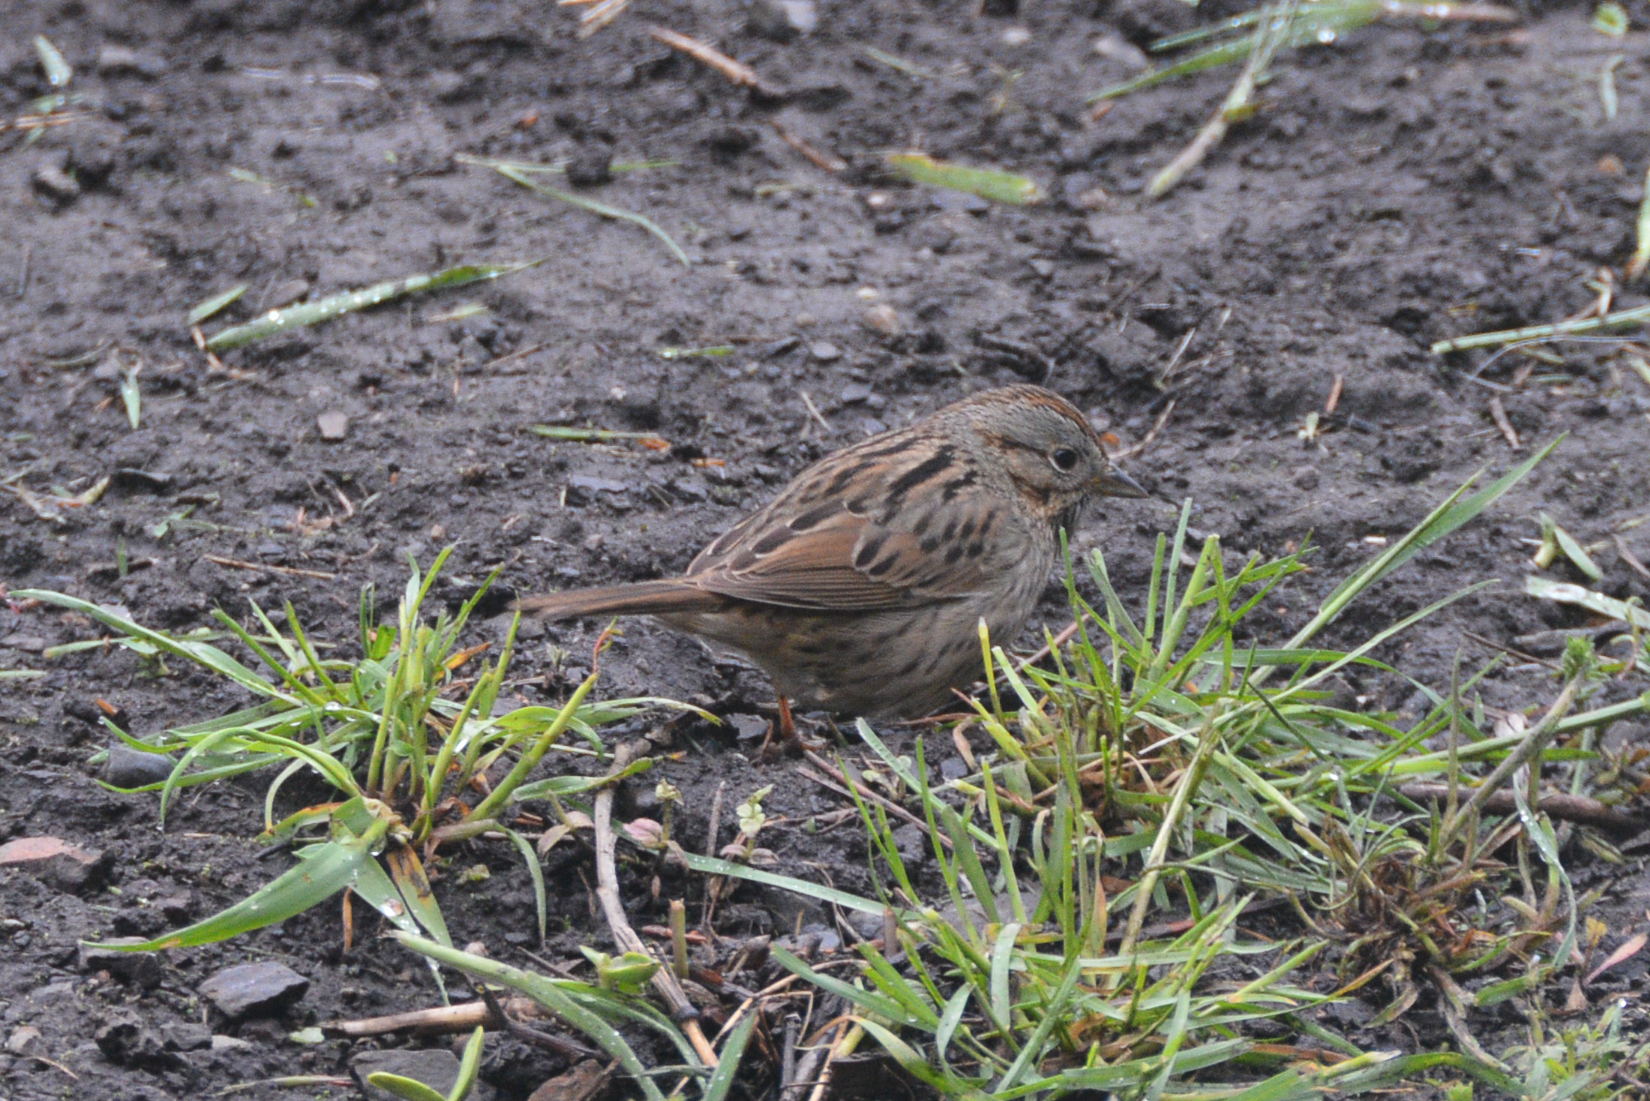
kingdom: Animalia
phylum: Chordata
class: Aves
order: Passeriformes
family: Passerellidae
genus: Melospiza
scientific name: Melospiza lincolnii
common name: Lincoln's sparrow
